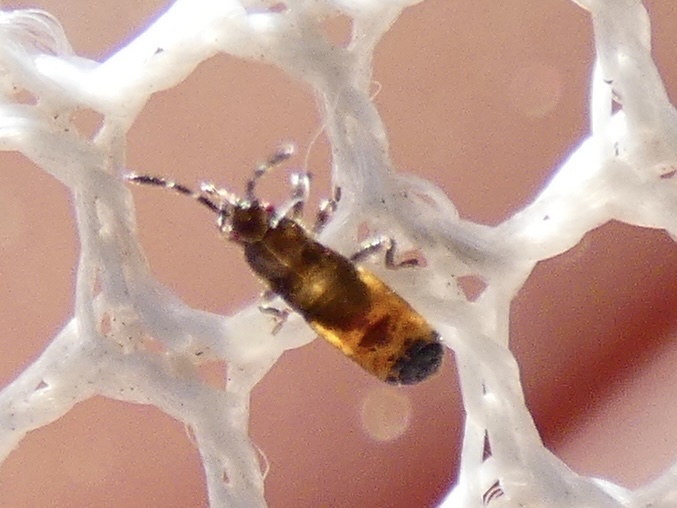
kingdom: Animalia
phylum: Arthropoda
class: Insecta
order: Hemiptera
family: Blissidae
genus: Ischnodemus
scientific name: Ischnodemus sabuleti
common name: European cinchbug
